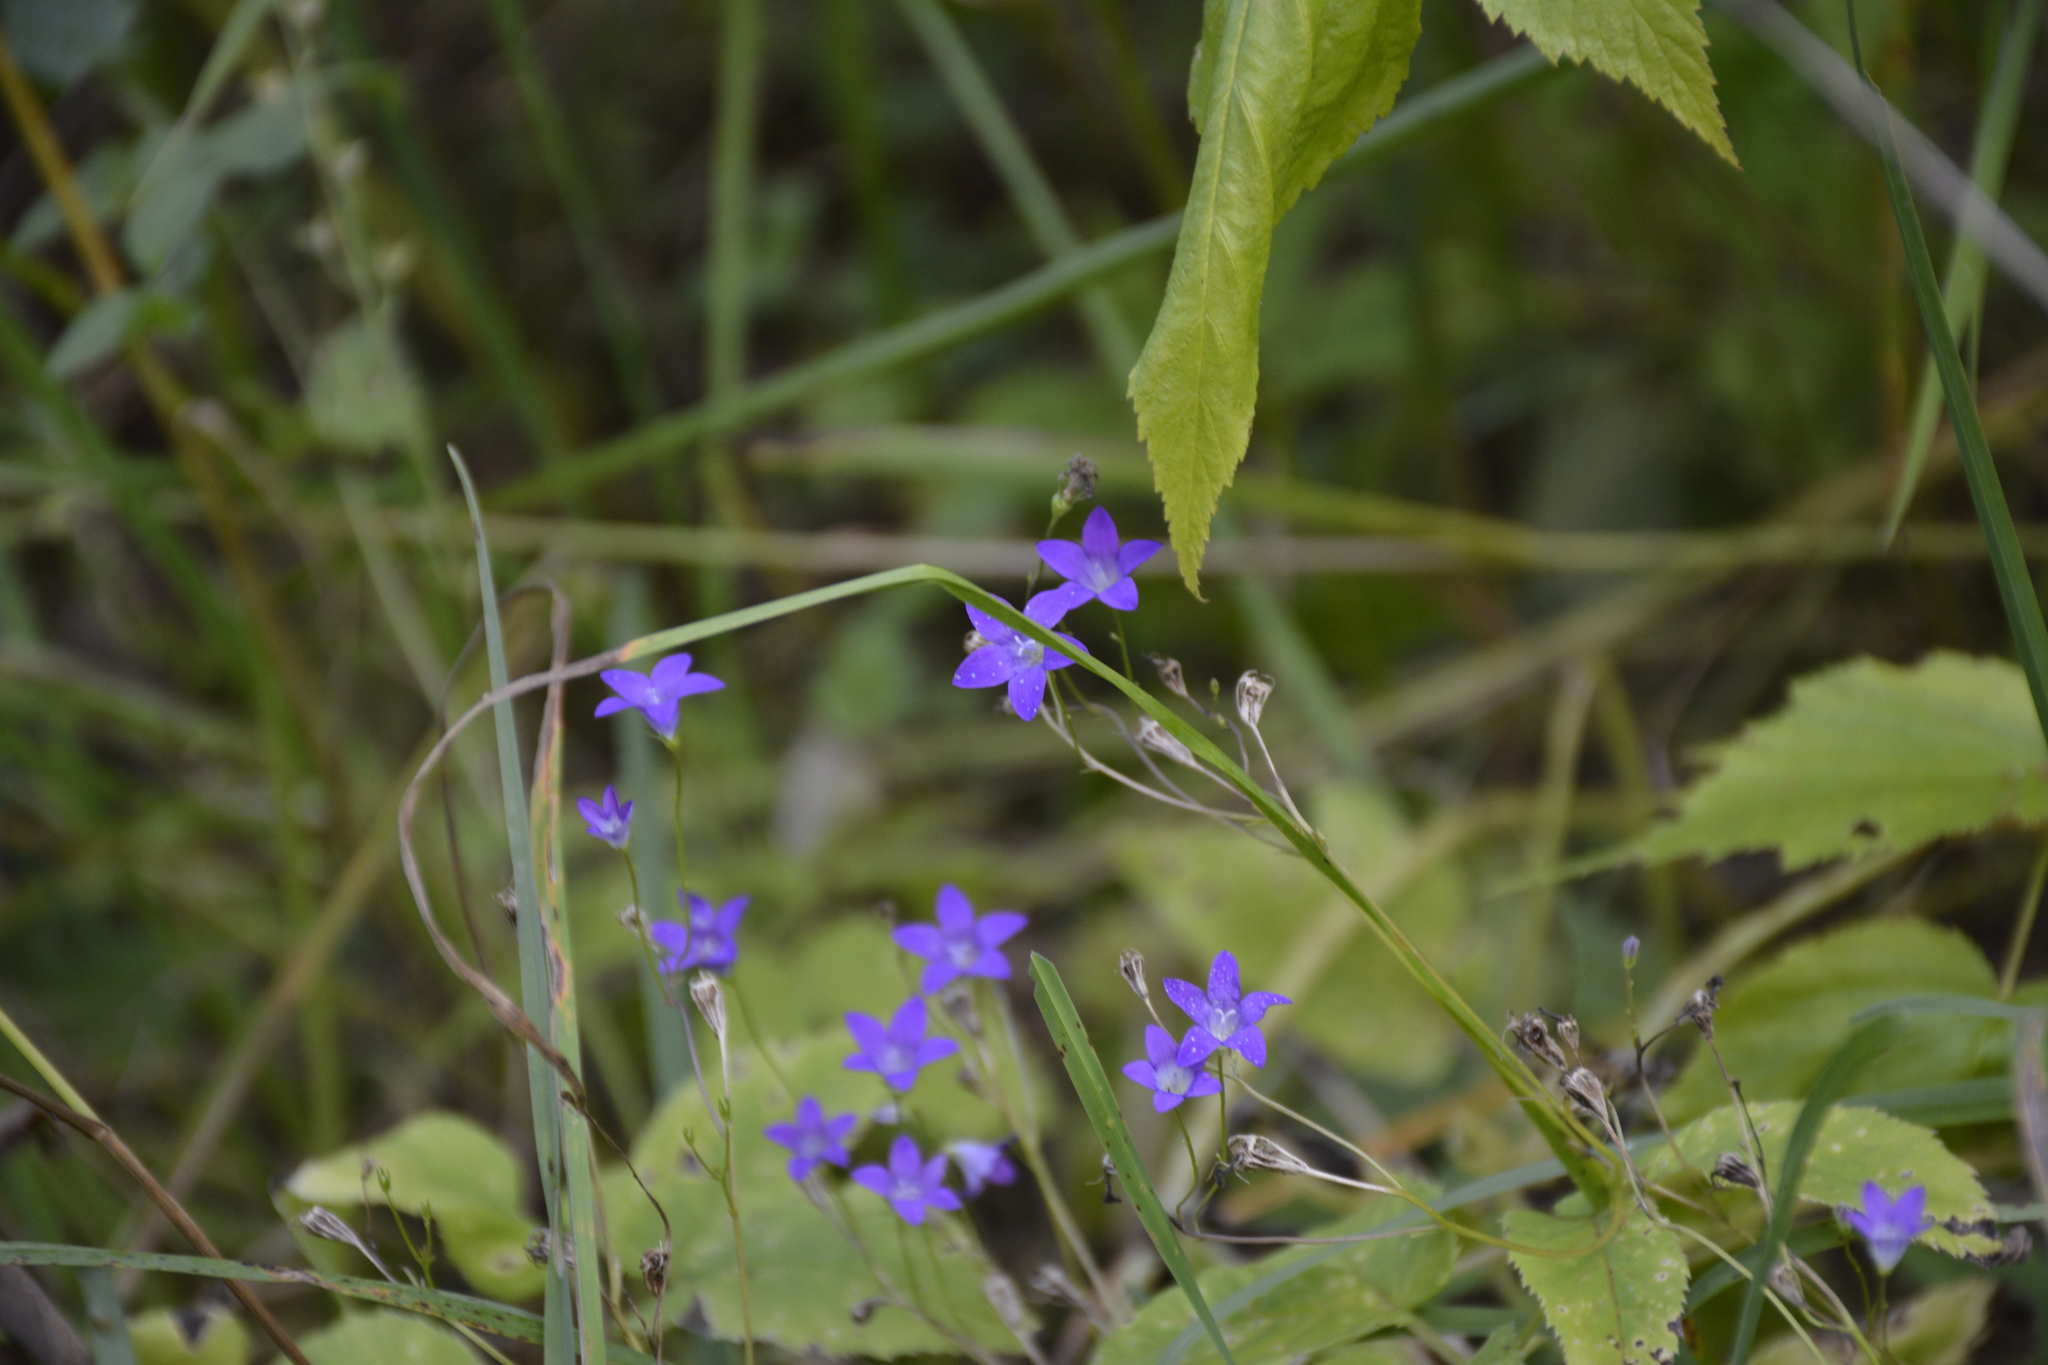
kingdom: Plantae
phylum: Tracheophyta
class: Magnoliopsida
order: Asterales
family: Campanulaceae
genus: Campanula
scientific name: Campanula patula
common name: Spreading bellflower
